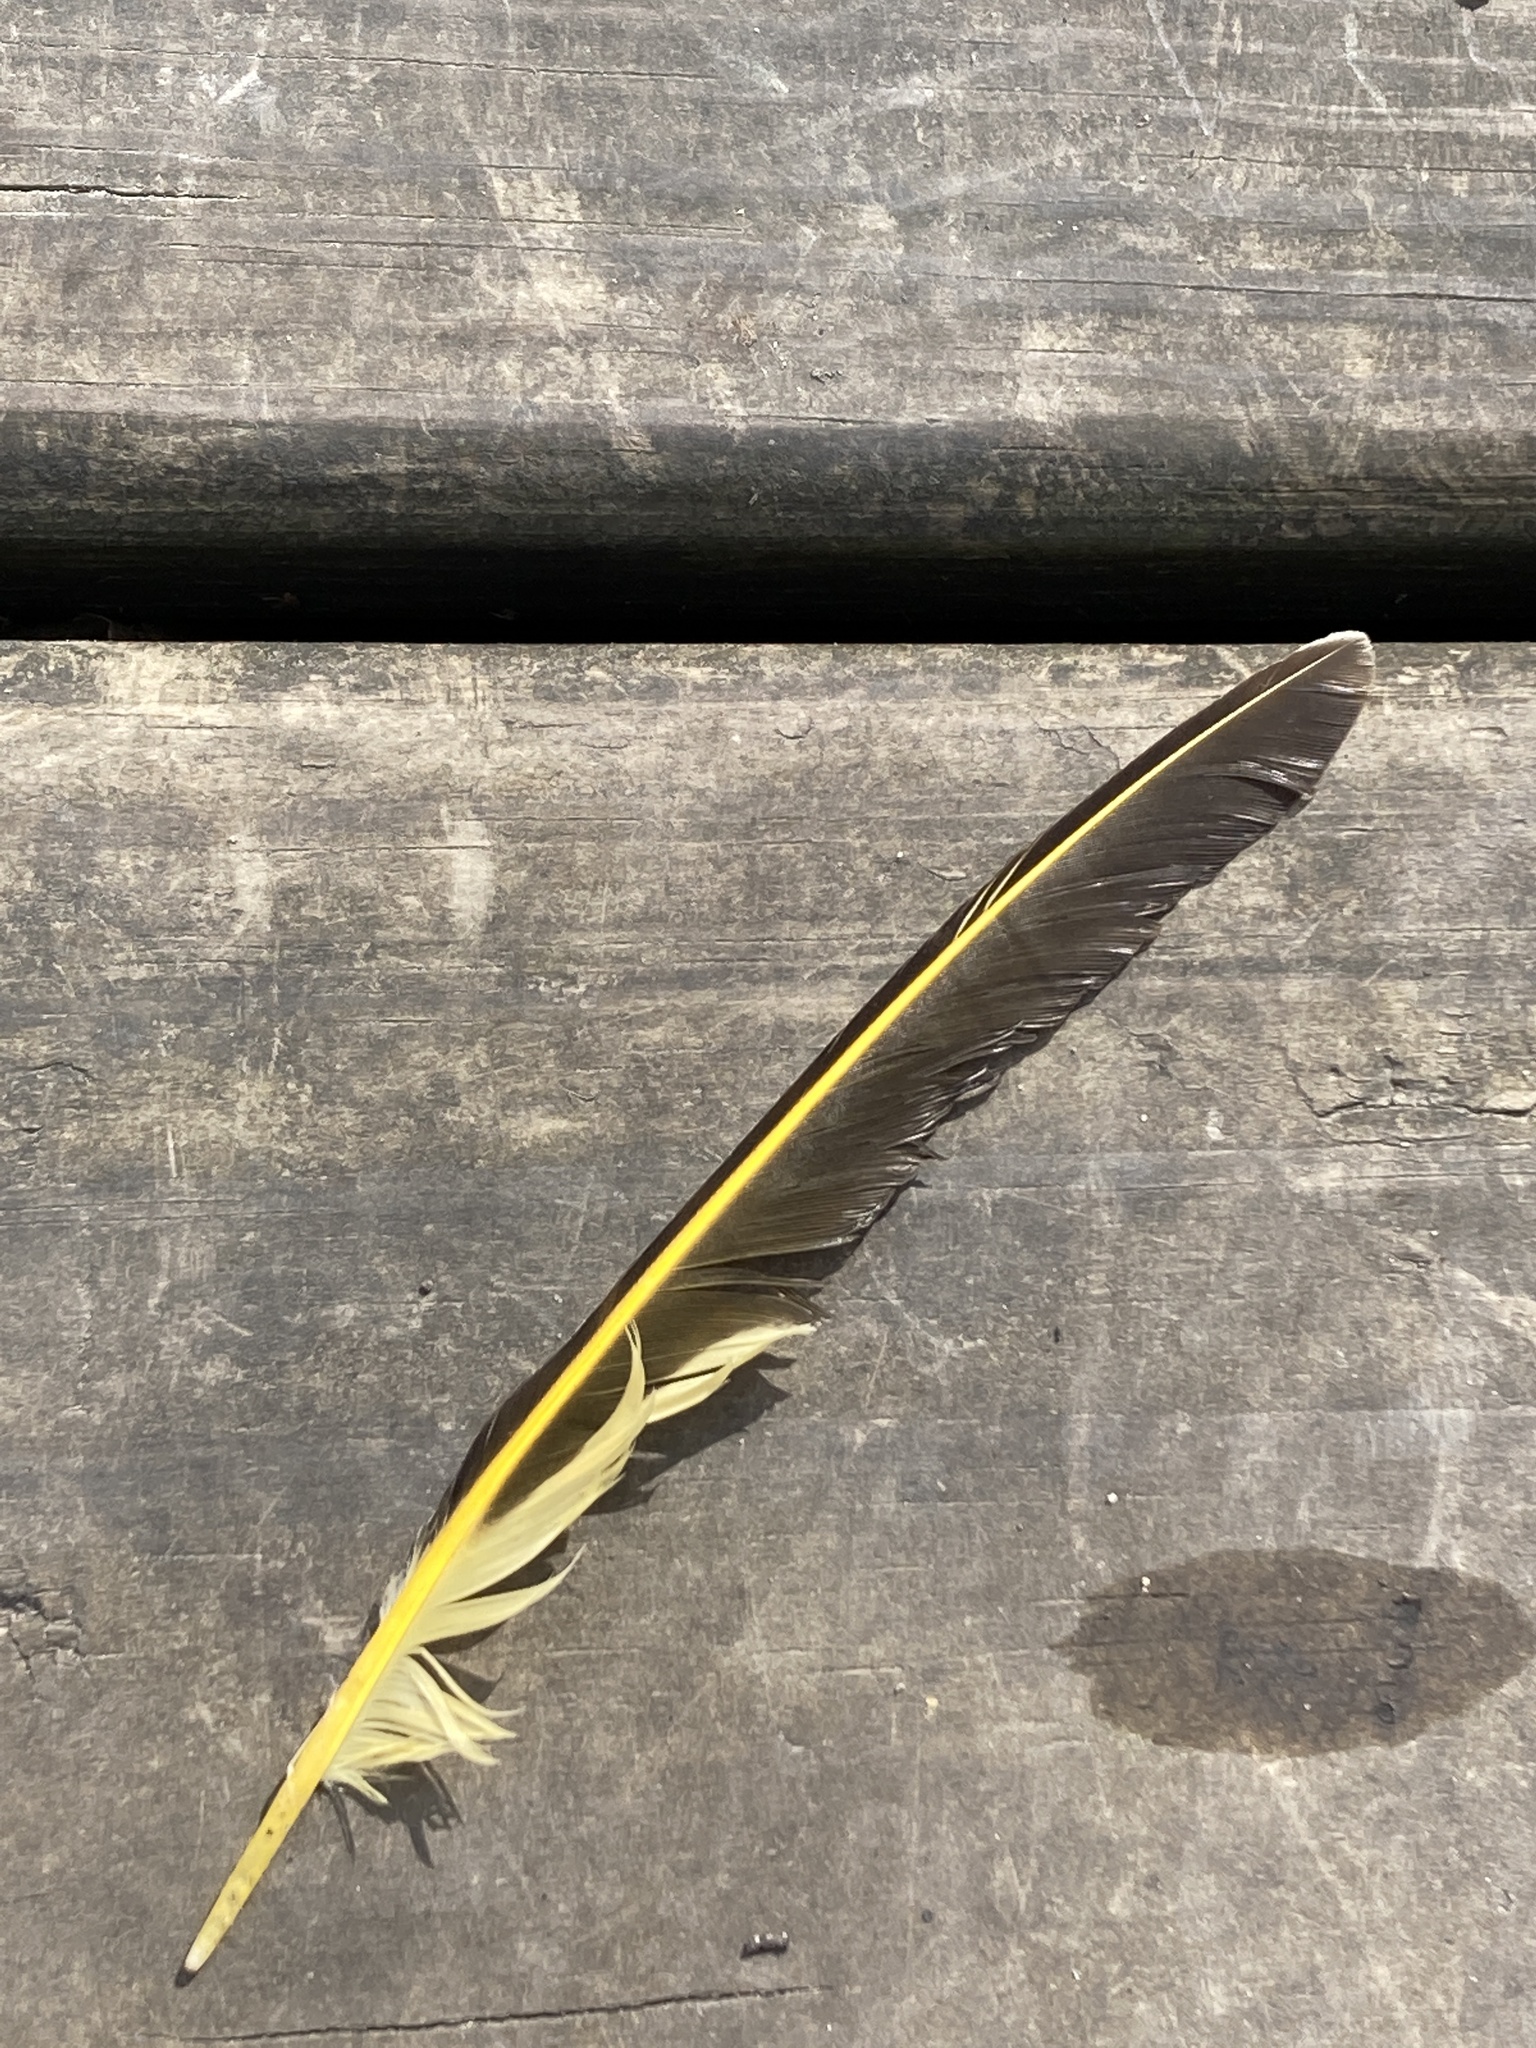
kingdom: Animalia
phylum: Chordata
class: Aves
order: Piciformes
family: Picidae
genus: Colaptes
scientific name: Colaptes auratus
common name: Northern flicker
